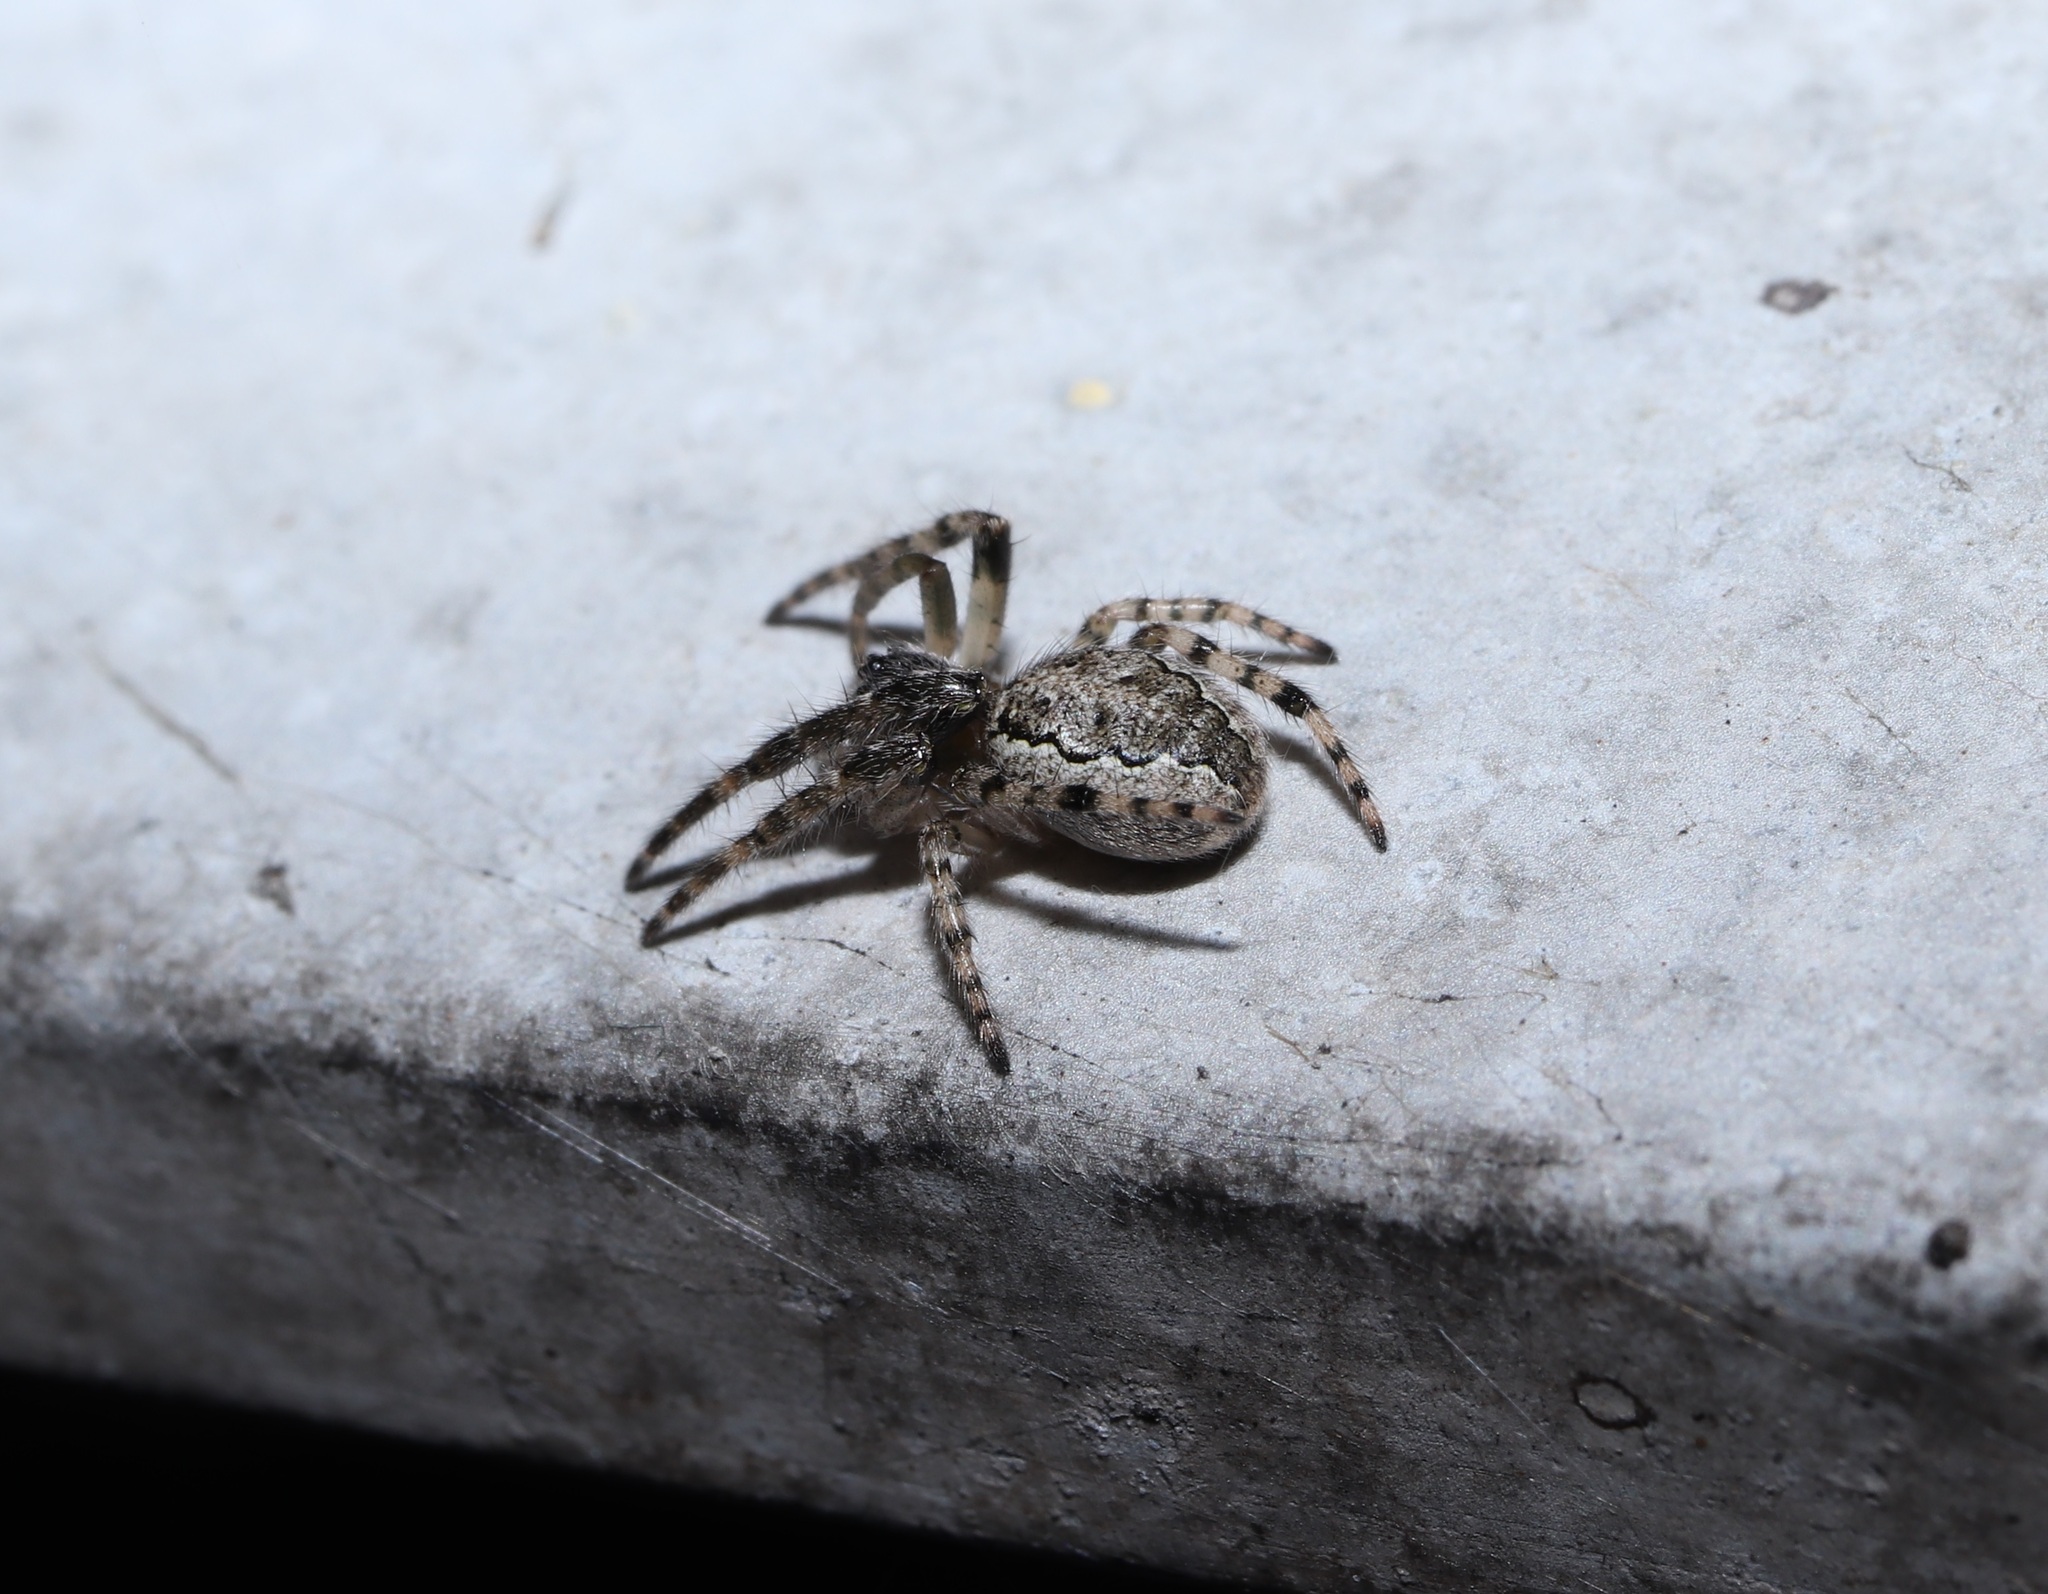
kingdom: Animalia
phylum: Arthropoda
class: Arachnida
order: Araneae
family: Araneidae
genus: Yaginumia
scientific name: Yaginumia sia
